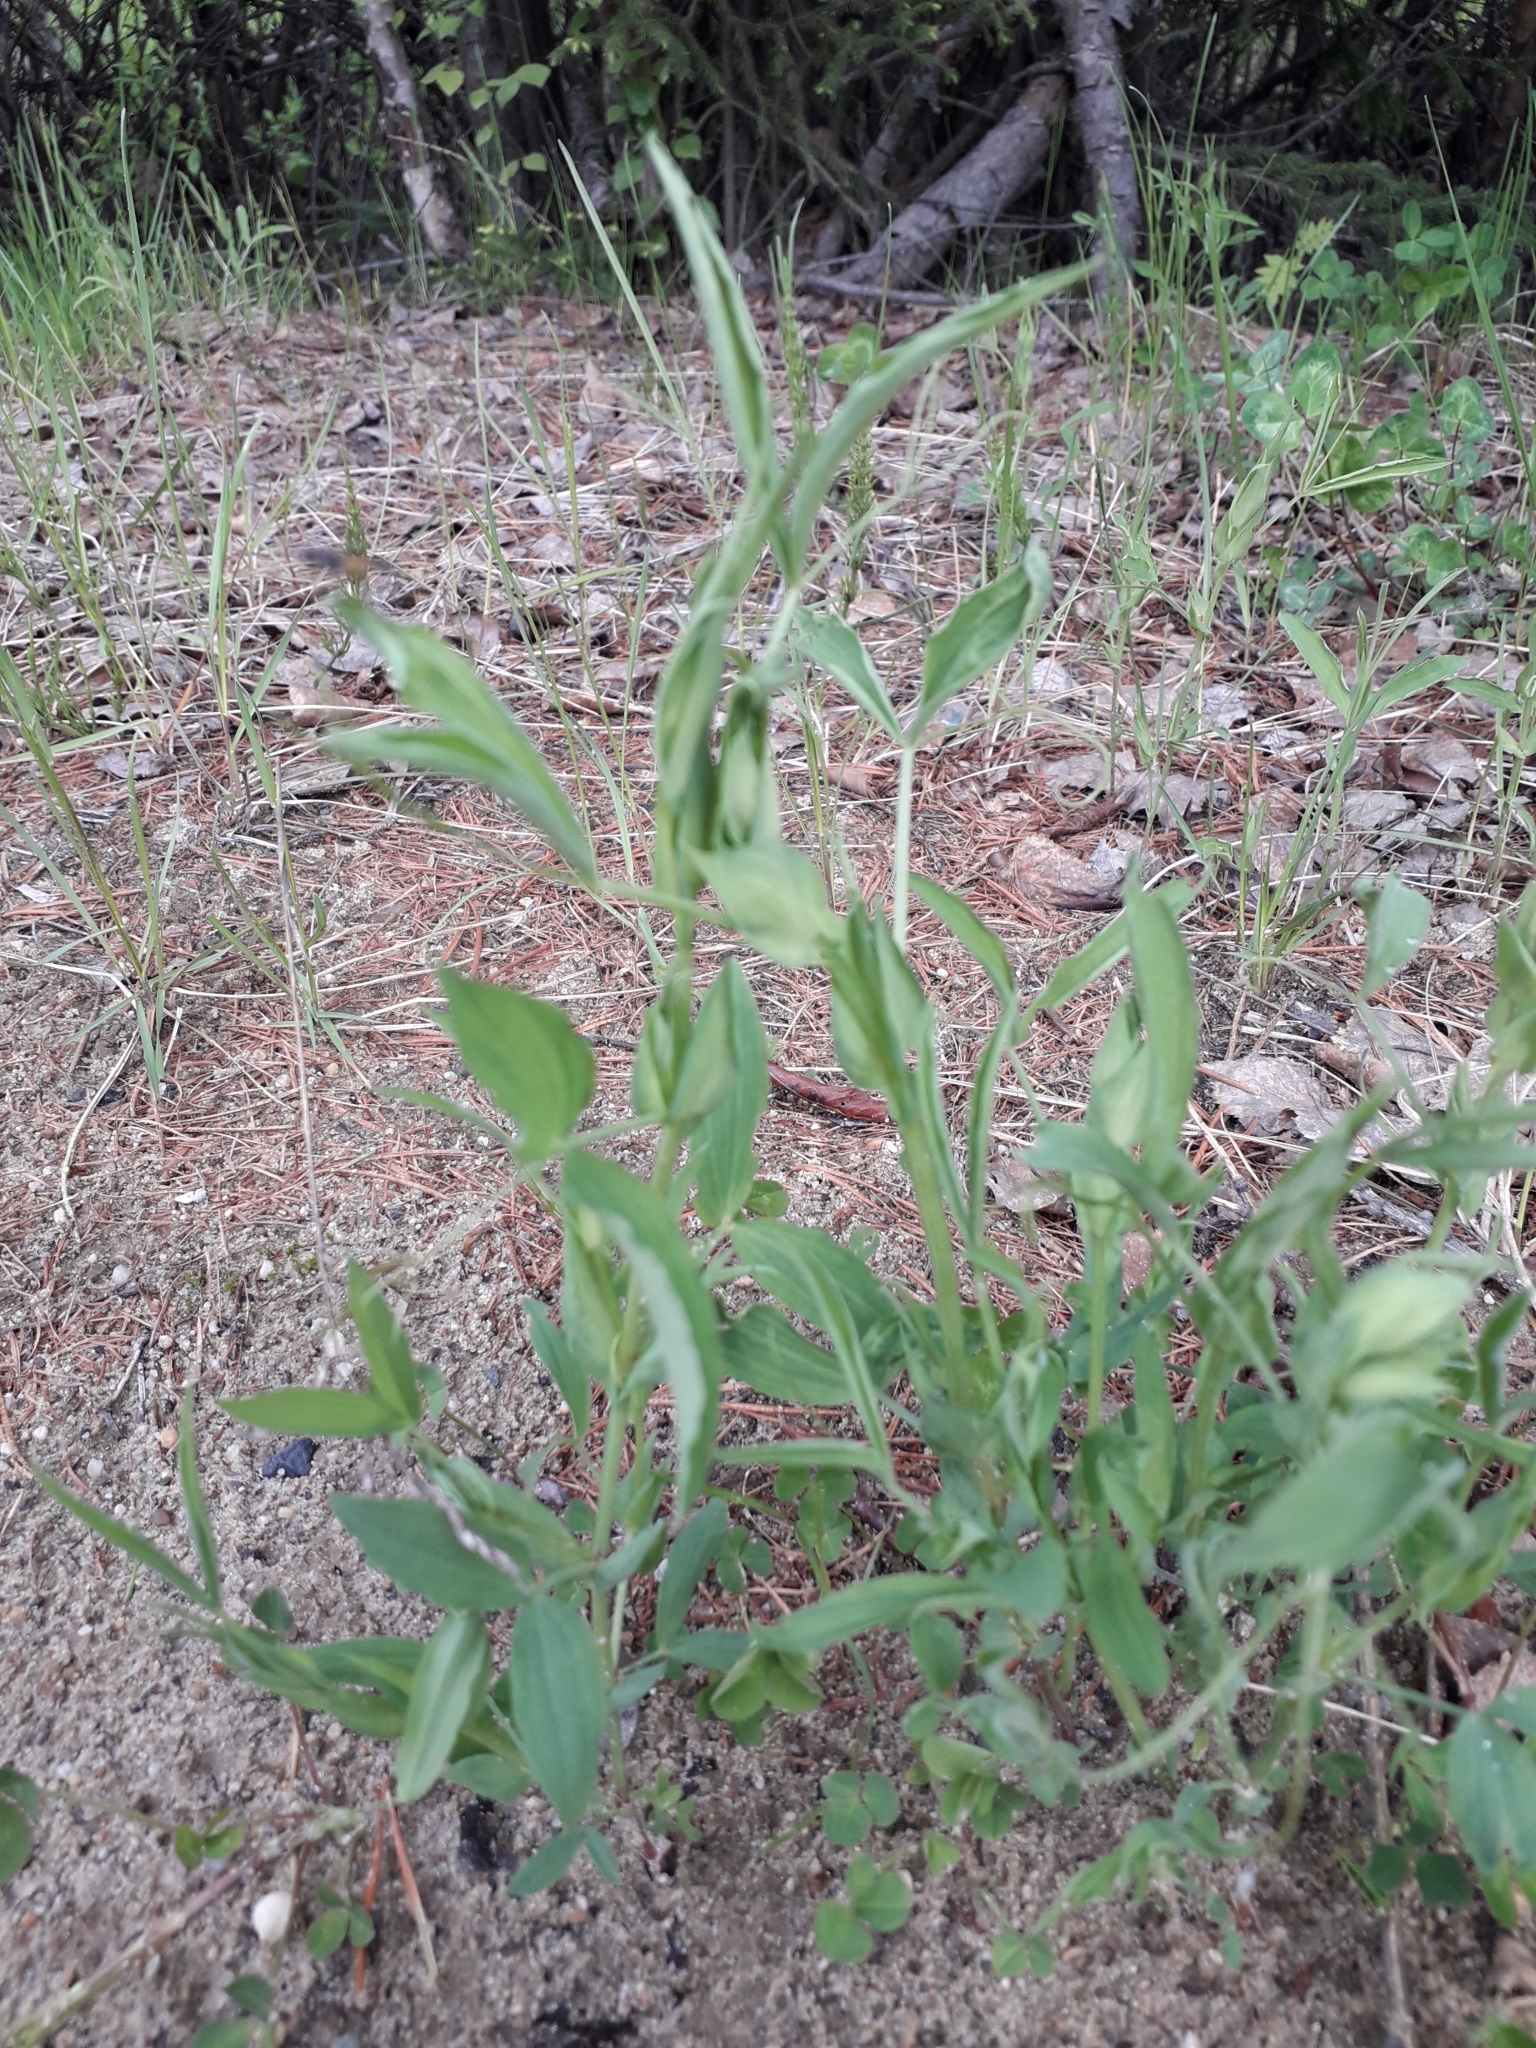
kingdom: Plantae
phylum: Tracheophyta
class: Magnoliopsida
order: Fabales
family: Fabaceae
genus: Lathyrus
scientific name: Lathyrus pratensis
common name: Meadow vetchling
